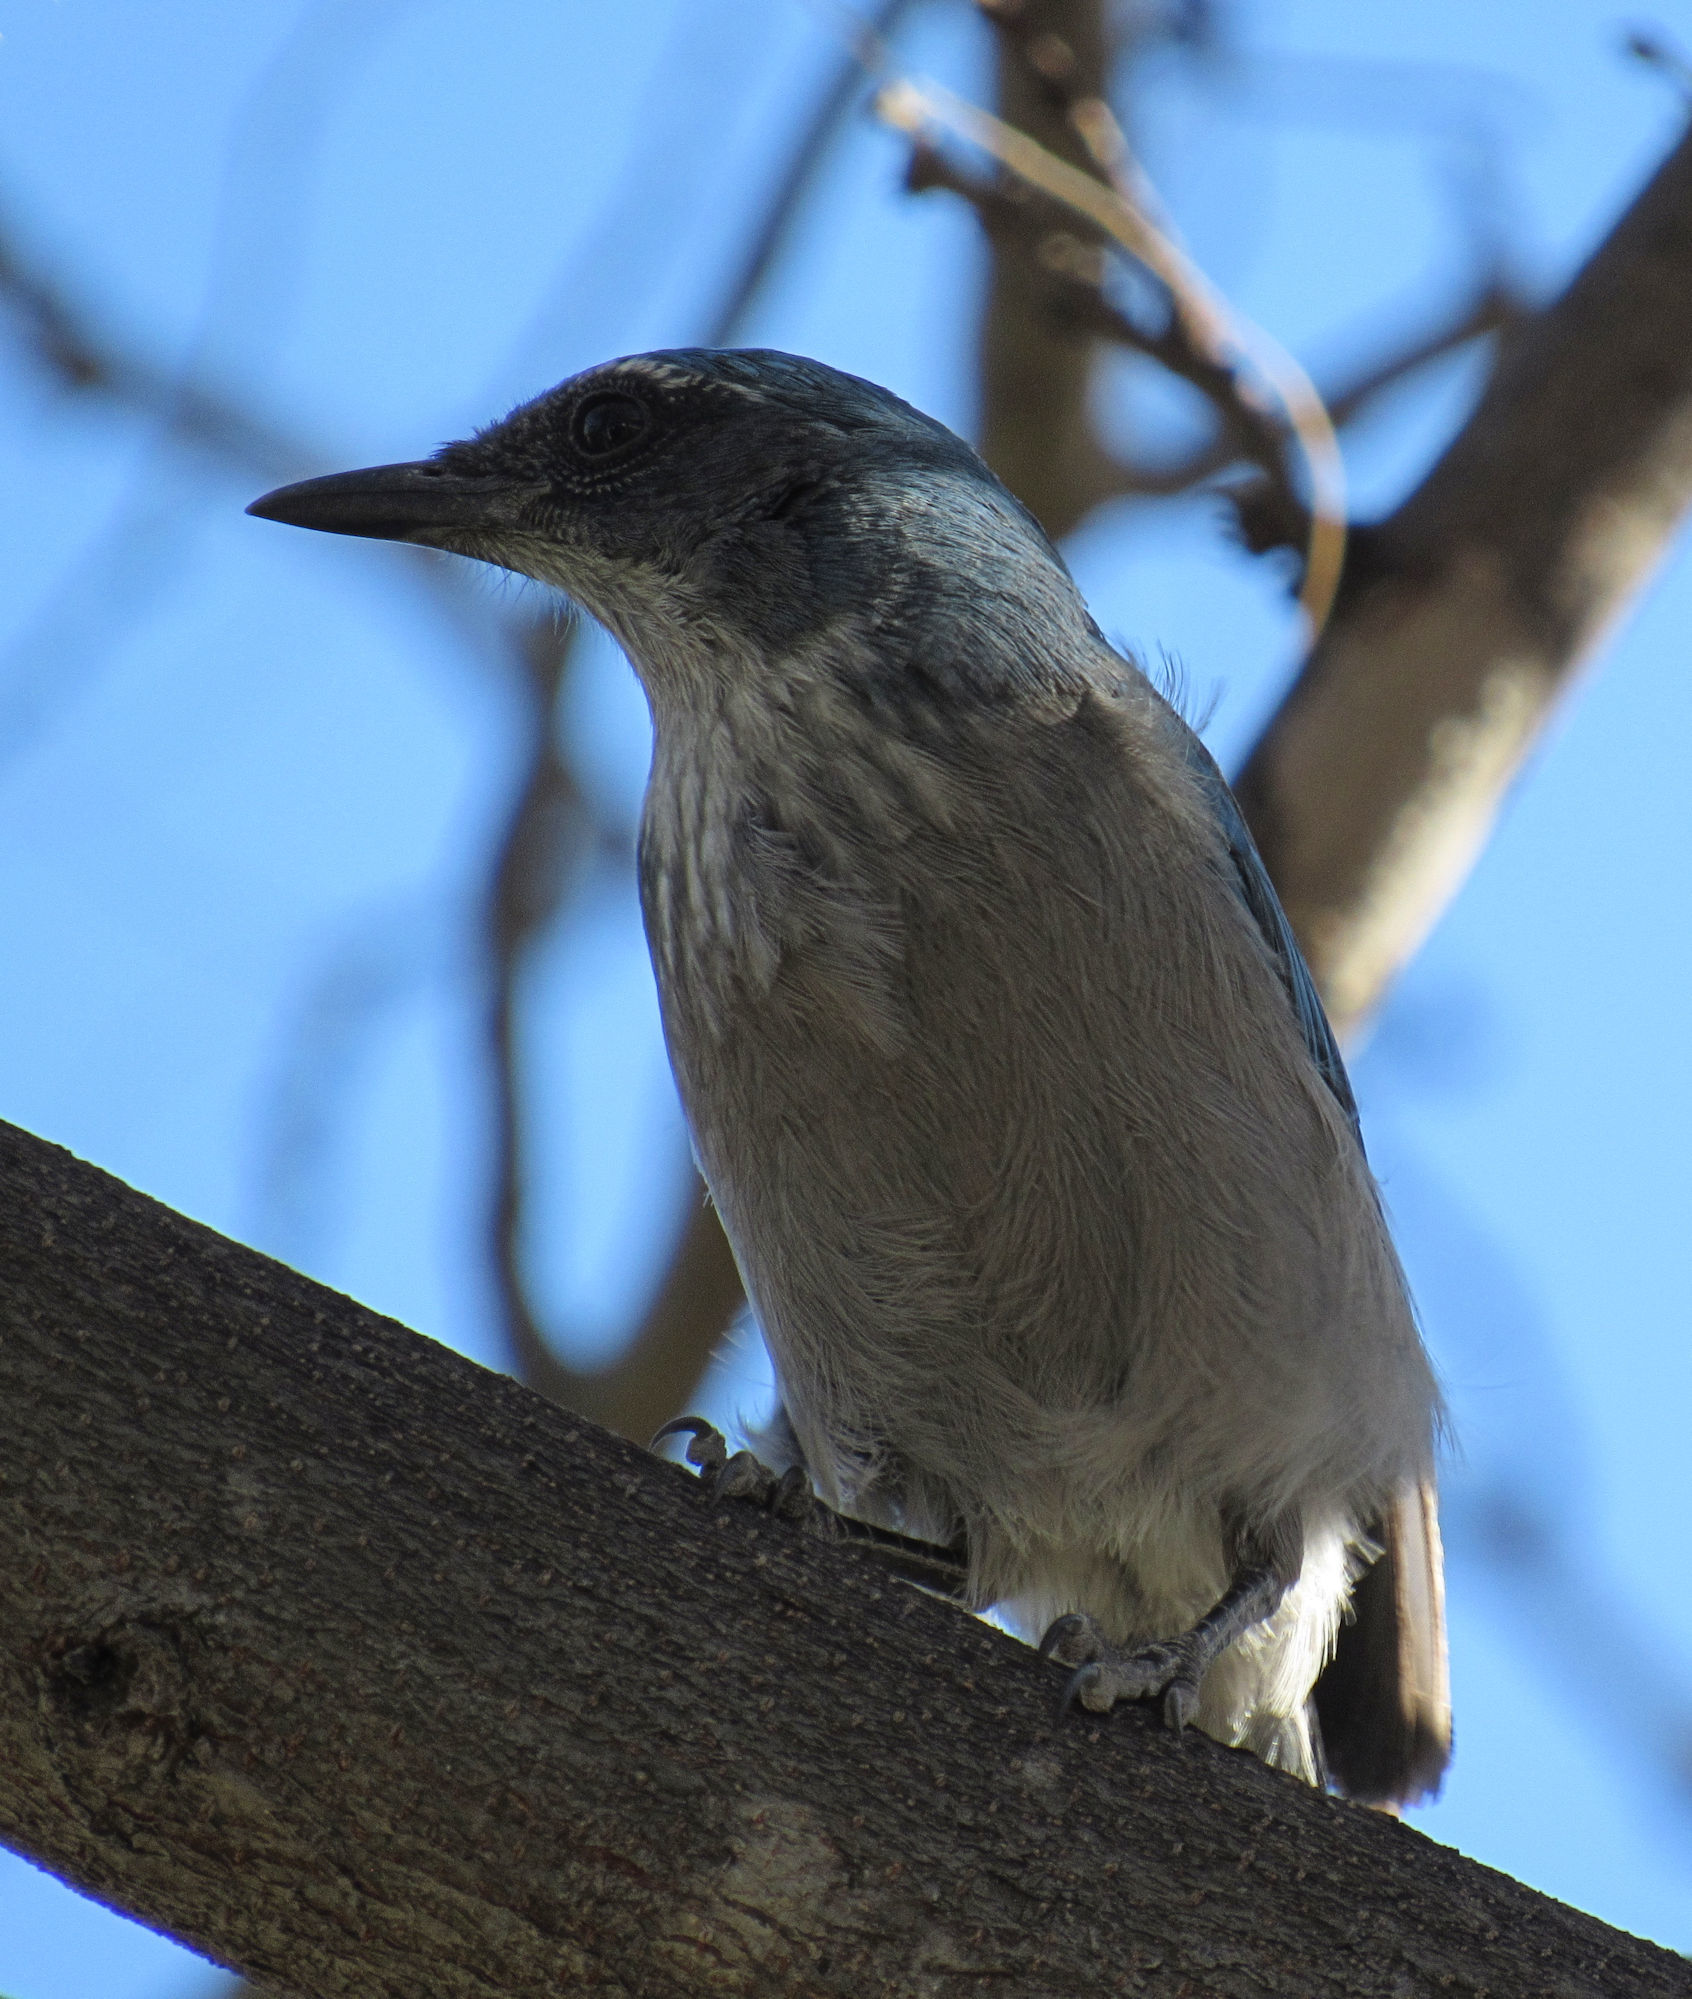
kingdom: Animalia
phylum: Chordata
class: Aves
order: Passeriformes
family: Corvidae
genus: Aphelocoma
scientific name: Aphelocoma woodhouseii
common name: Woodhouse's scrub-jay
